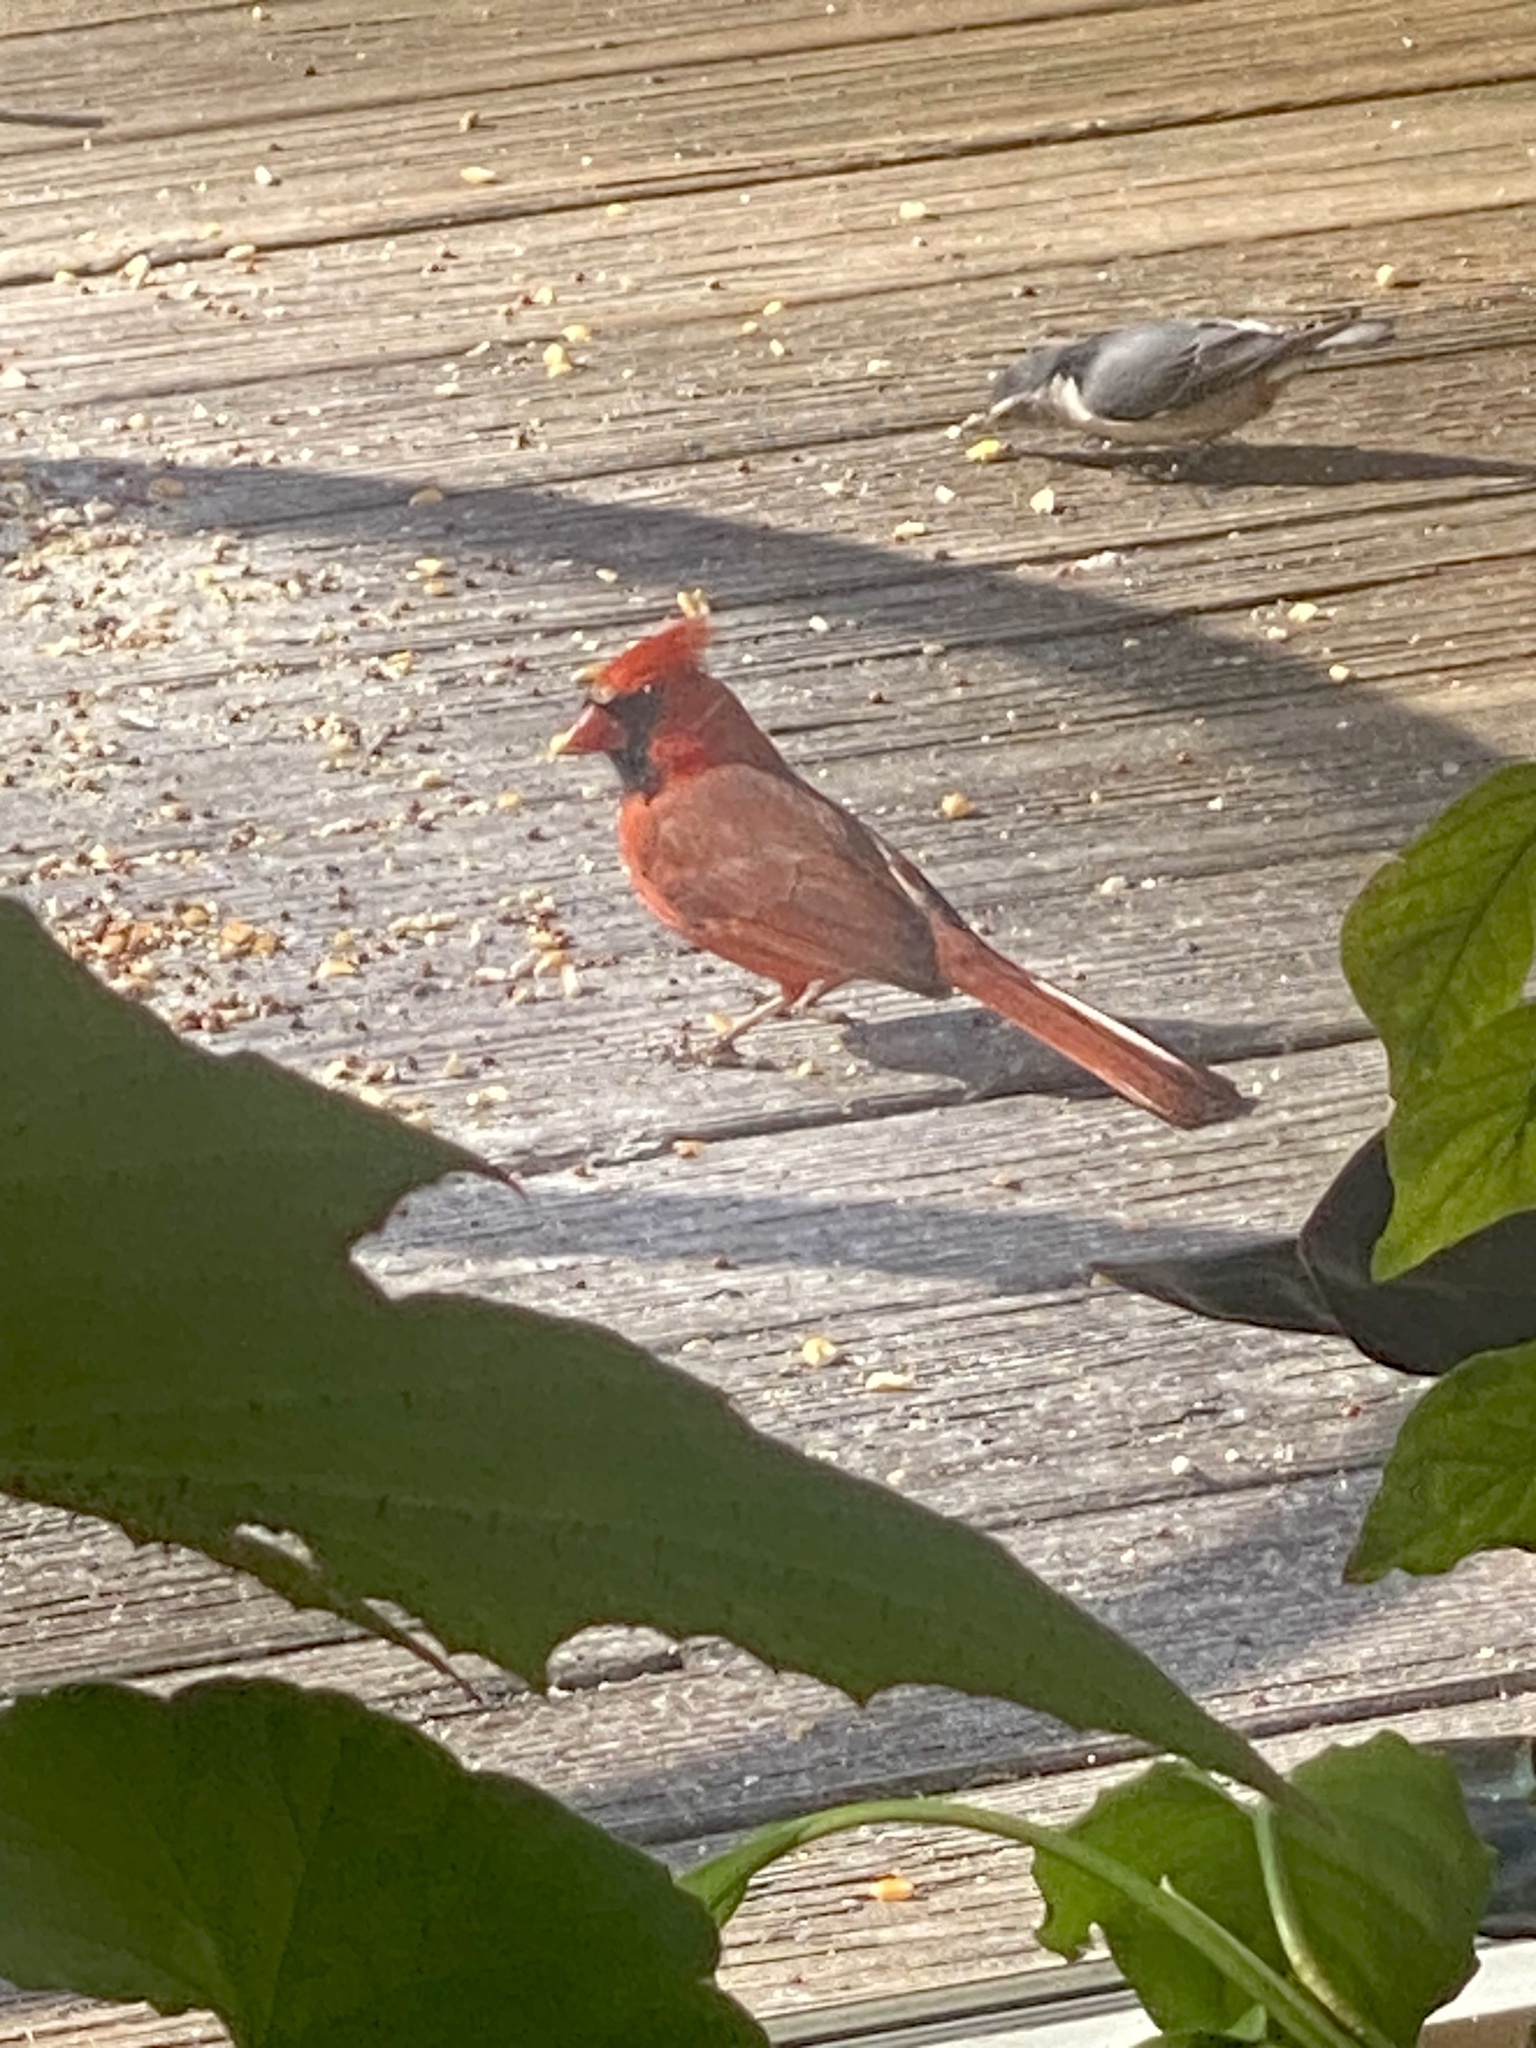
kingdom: Animalia
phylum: Chordata
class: Aves
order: Passeriformes
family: Cardinalidae
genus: Cardinalis
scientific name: Cardinalis cardinalis
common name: Northern cardinal
